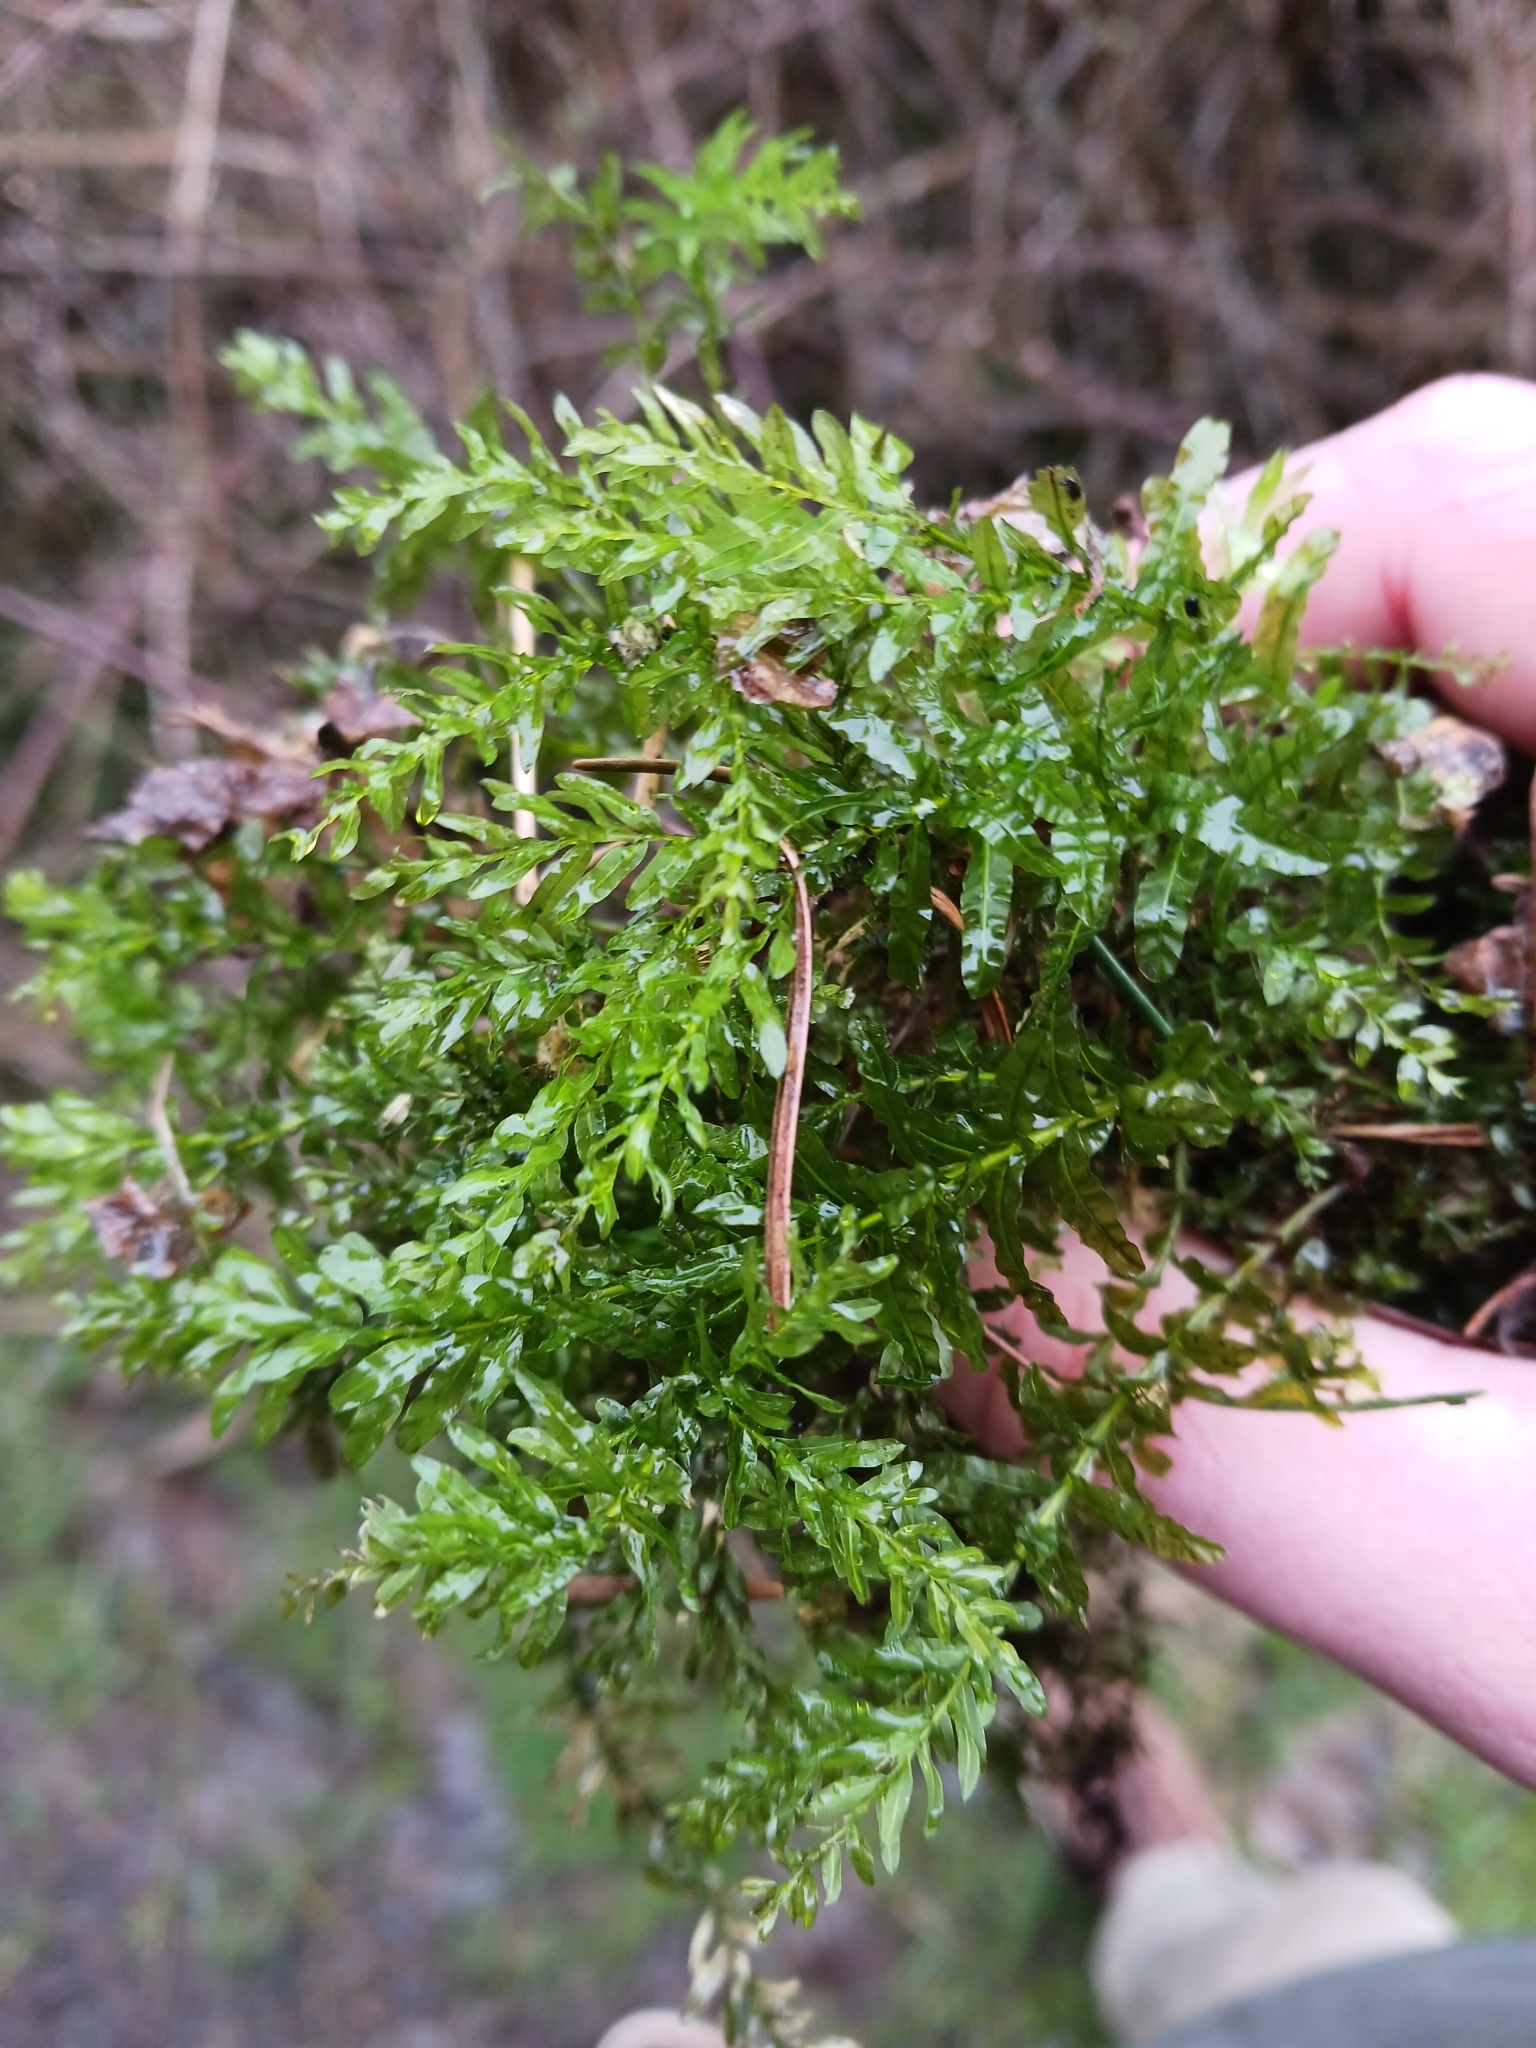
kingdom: Plantae
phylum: Bryophyta
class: Bryopsida
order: Bryales
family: Mniaceae
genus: Plagiomnium
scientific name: Plagiomnium undulatum
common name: Hart's-tongue thyme-moss
